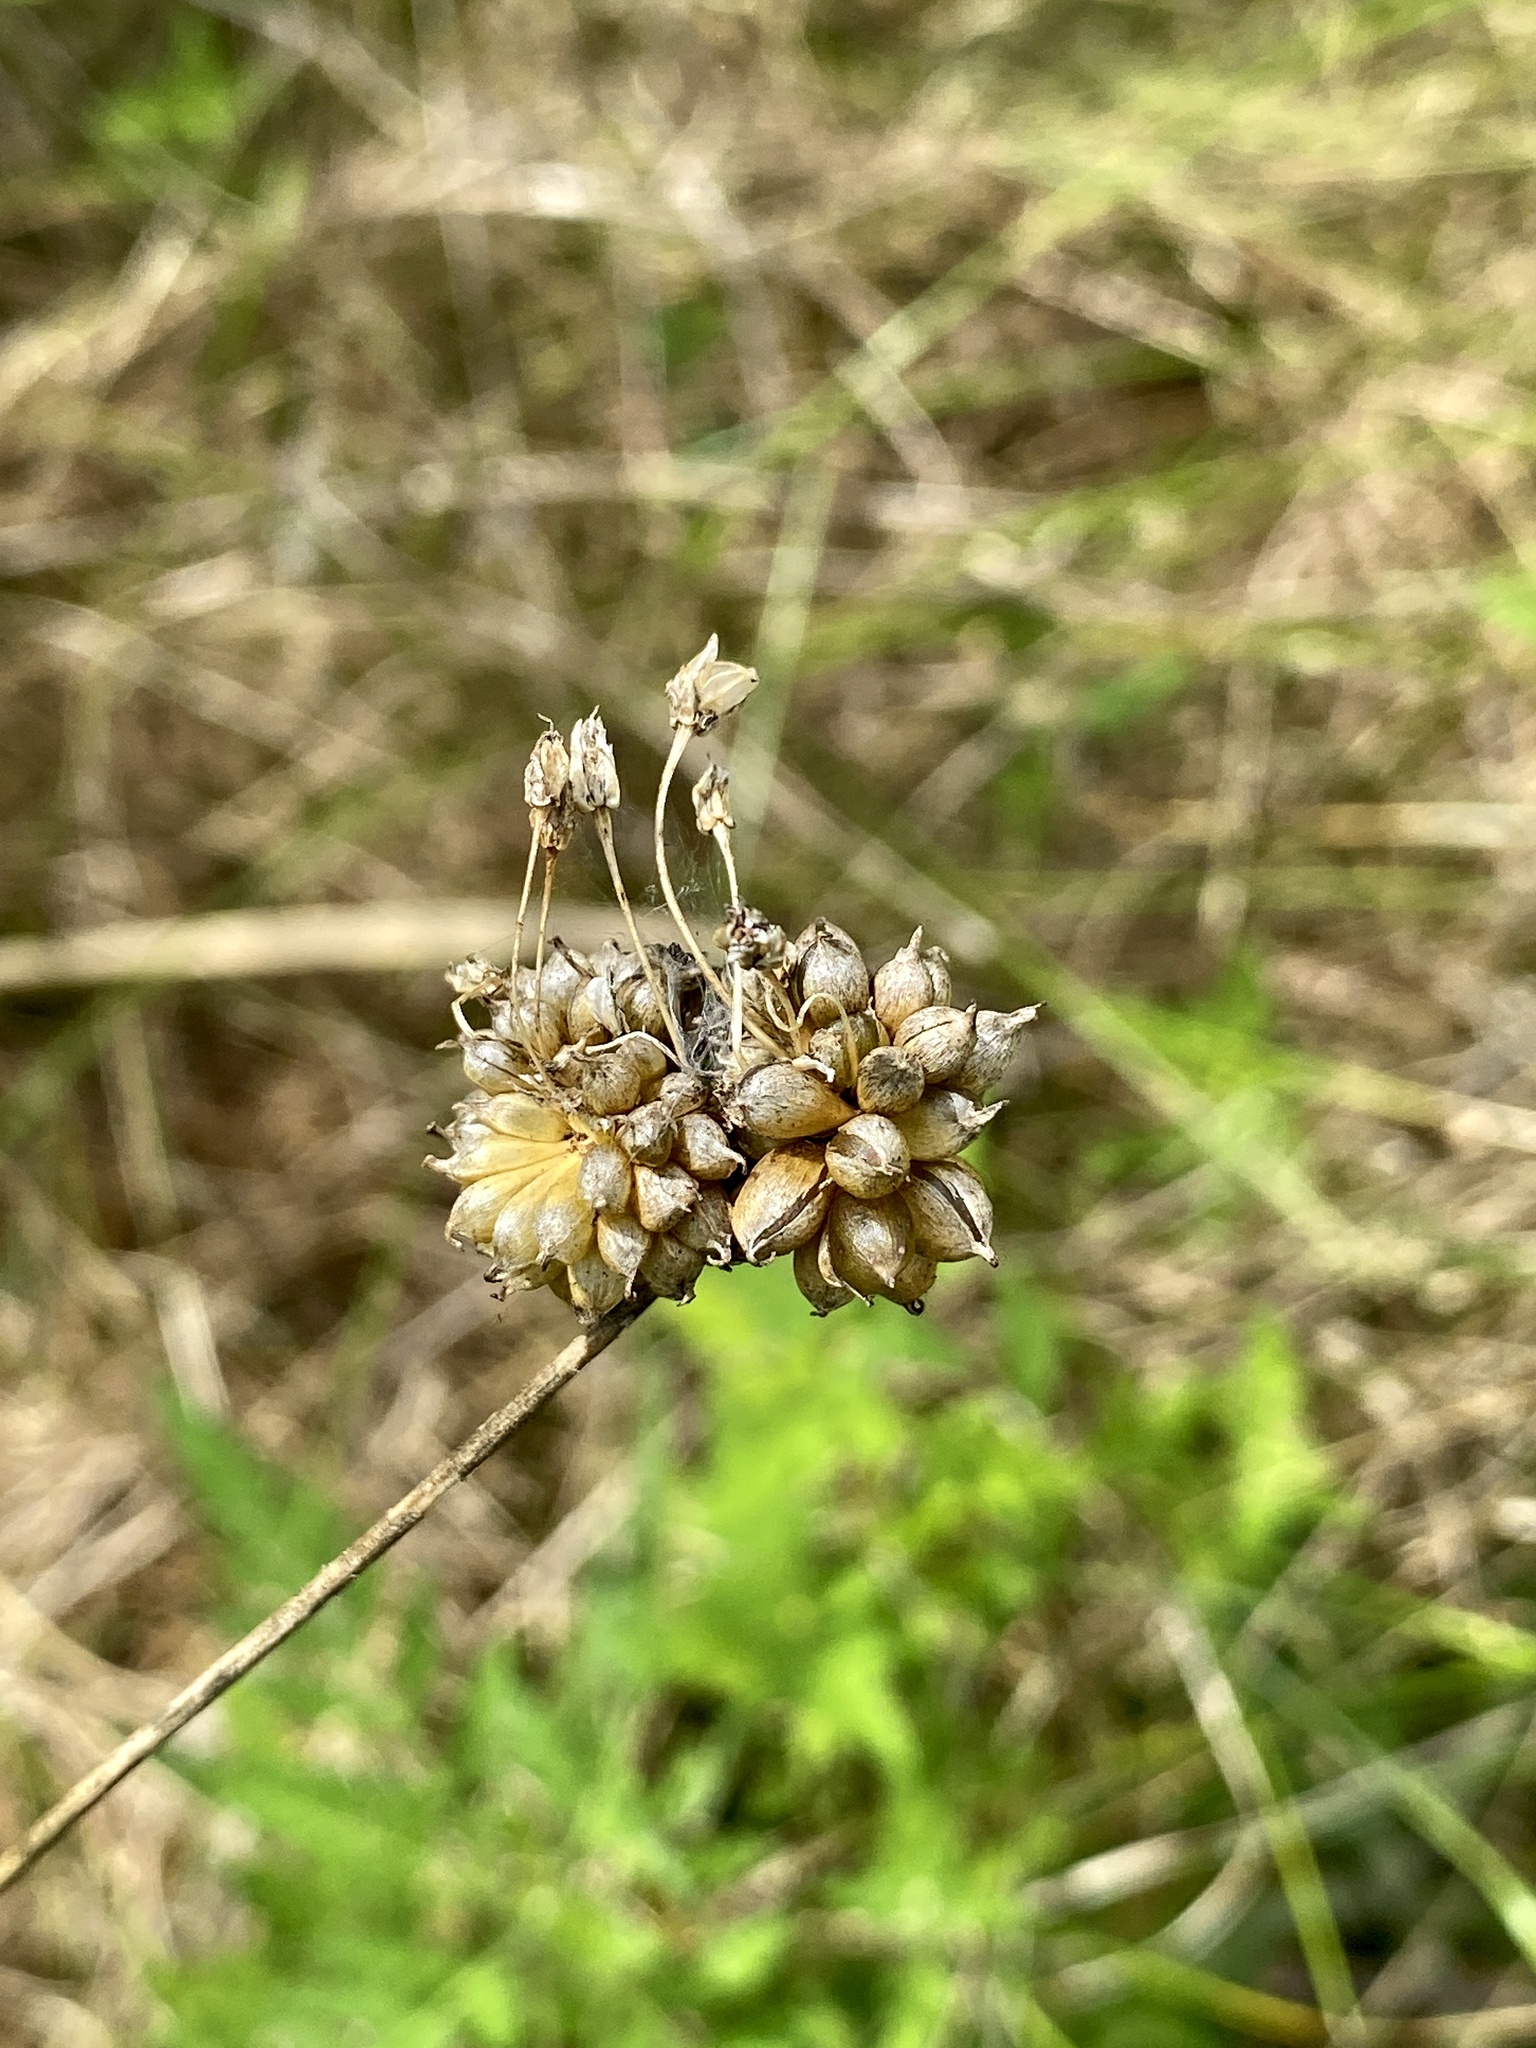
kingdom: Plantae
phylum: Tracheophyta
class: Liliopsida
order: Asparagales
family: Amaryllidaceae
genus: Allium
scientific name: Allium vineale
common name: Crow garlic
